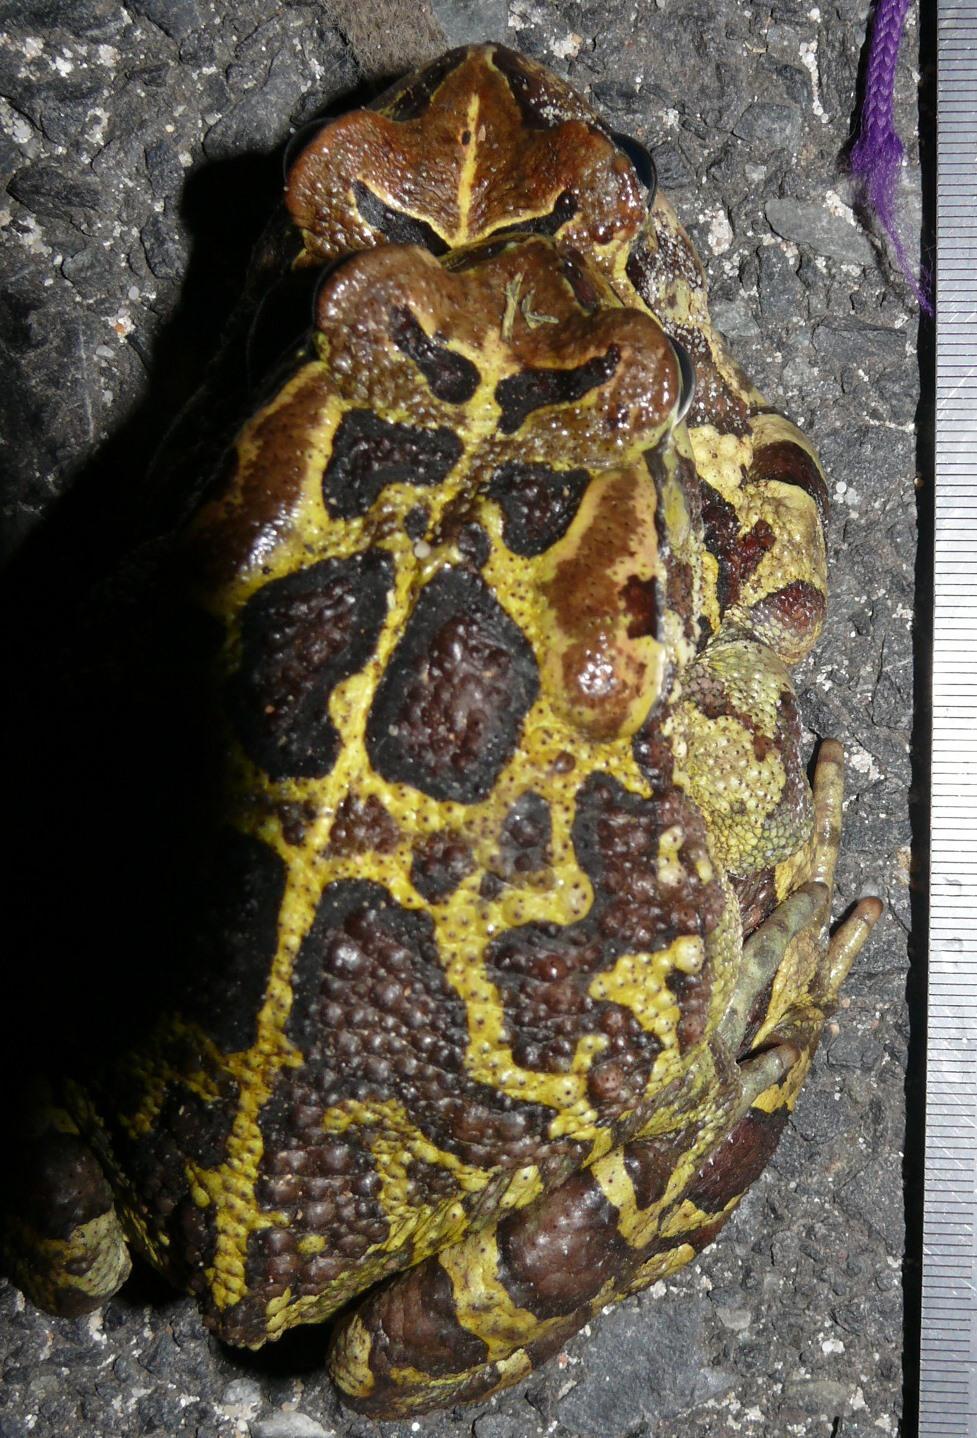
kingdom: Animalia
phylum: Chordata
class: Amphibia
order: Anura
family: Bufonidae
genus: Sclerophrys
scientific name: Sclerophrys pantherina
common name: Panther toad
